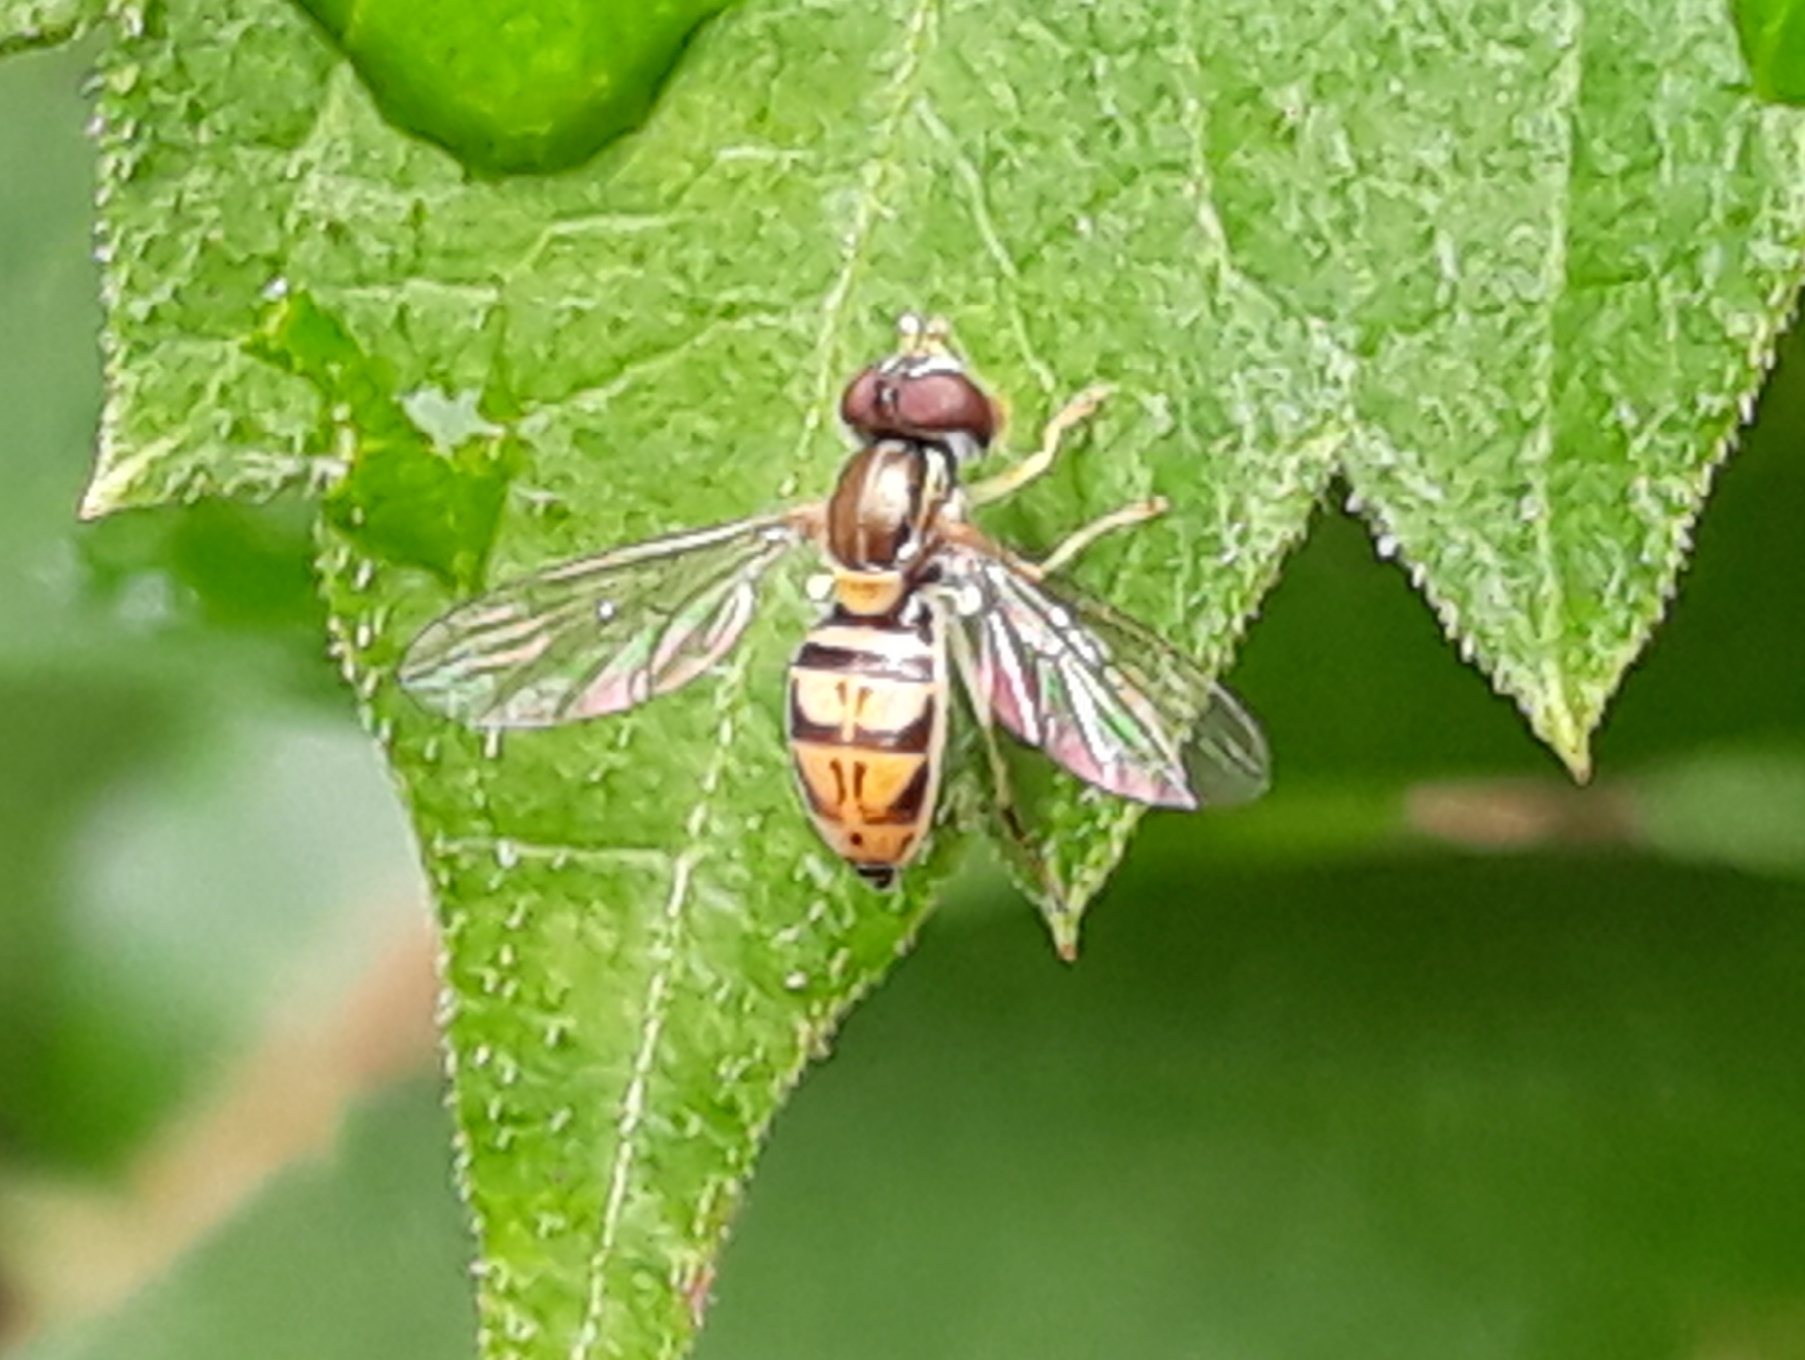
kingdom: Animalia
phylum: Arthropoda
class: Insecta
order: Diptera
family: Syrphidae
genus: Toxomerus
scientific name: Toxomerus marginatus
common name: Syrphid fly
